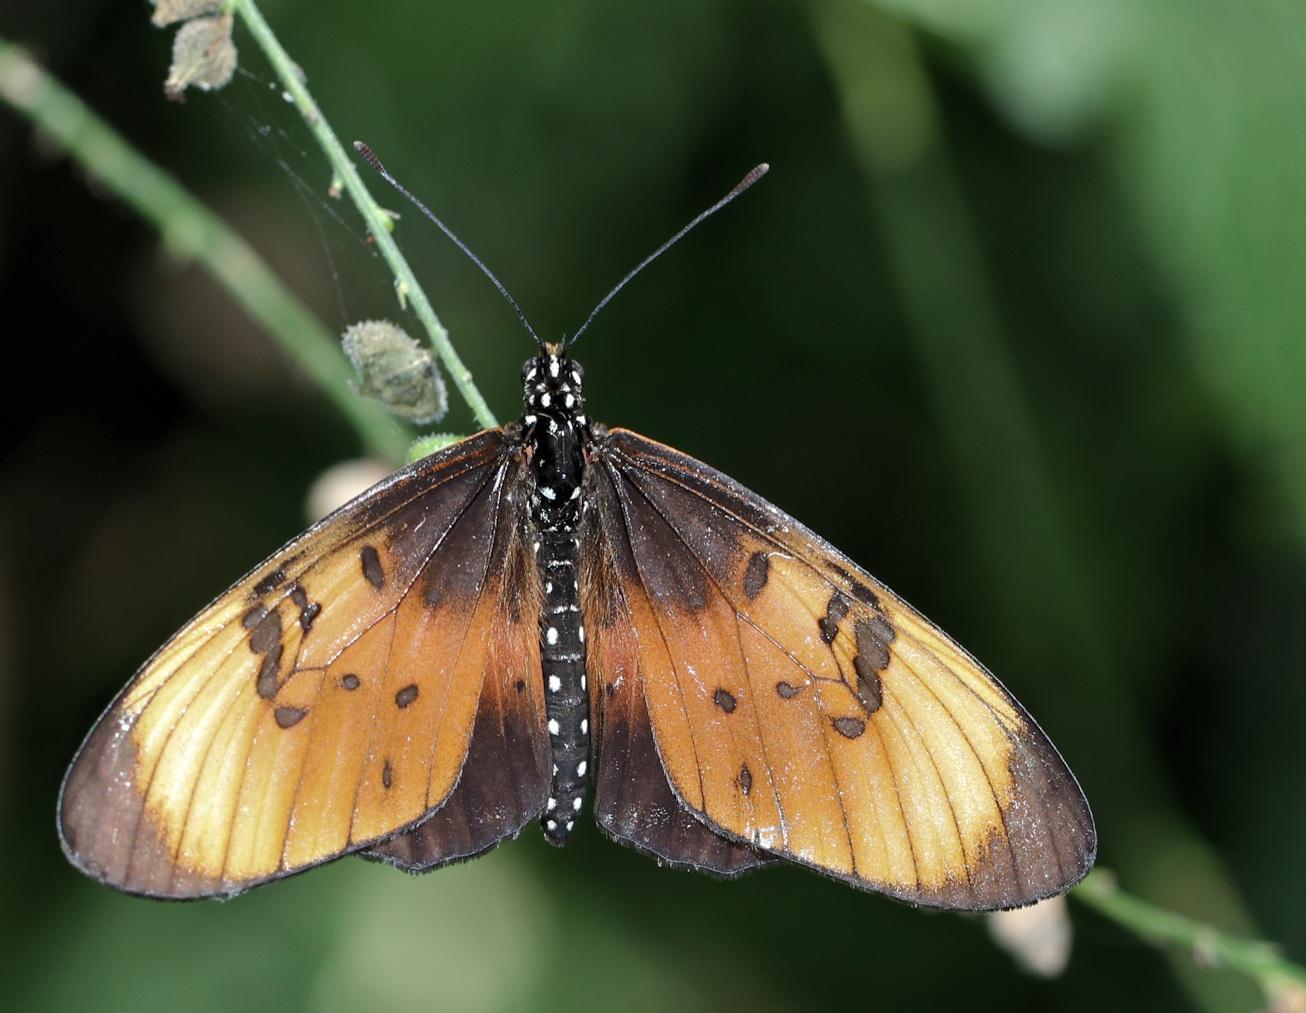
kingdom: Animalia
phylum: Arthropoda
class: Insecta
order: Lepidoptera
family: Nymphalidae
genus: Stephenia
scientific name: Stephenia
